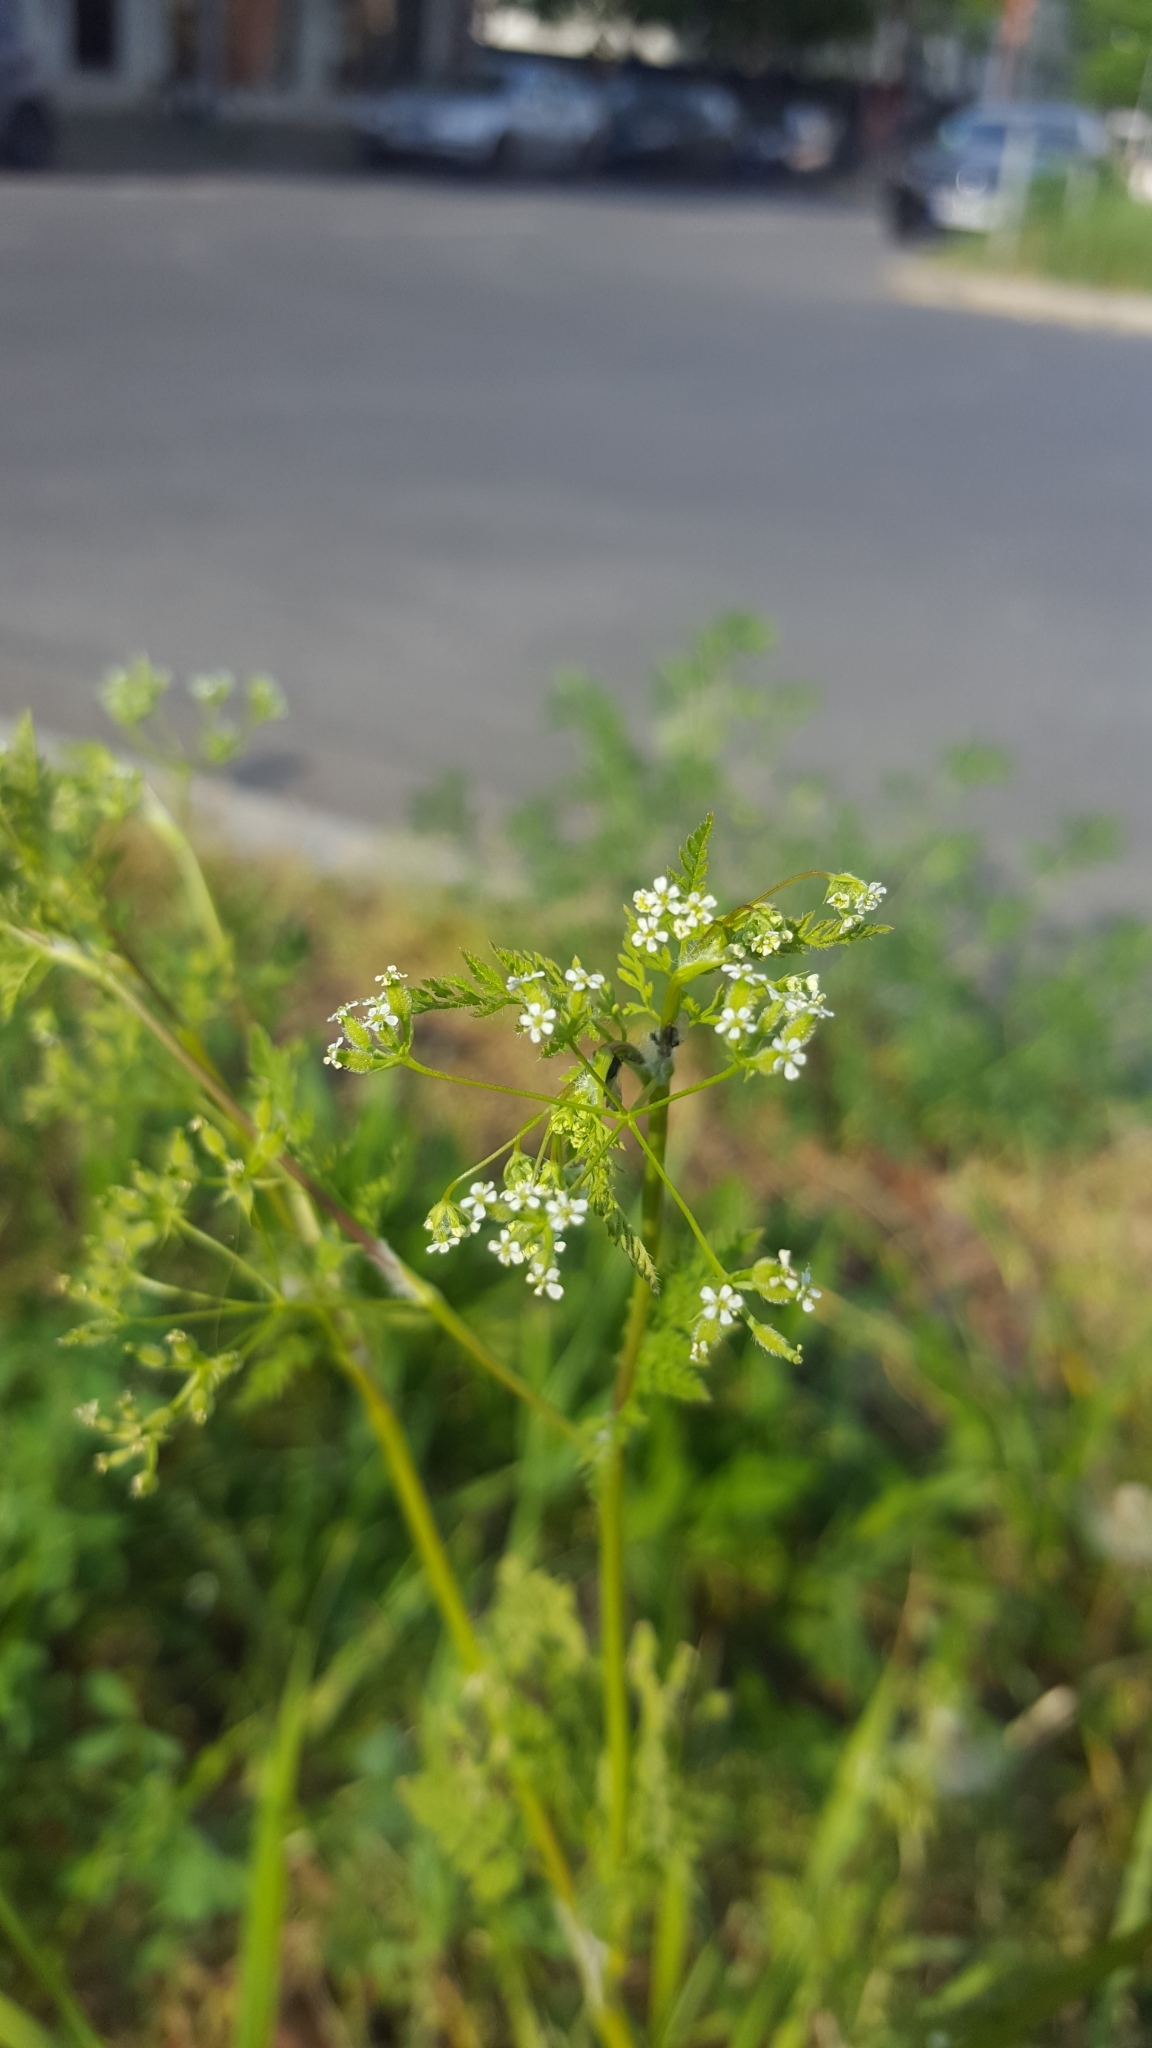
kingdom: Plantae
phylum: Tracheophyta
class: Magnoliopsida
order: Apiales
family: Apiaceae
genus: Anthriscus
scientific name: Anthriscus caucalis
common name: Bur chervil
